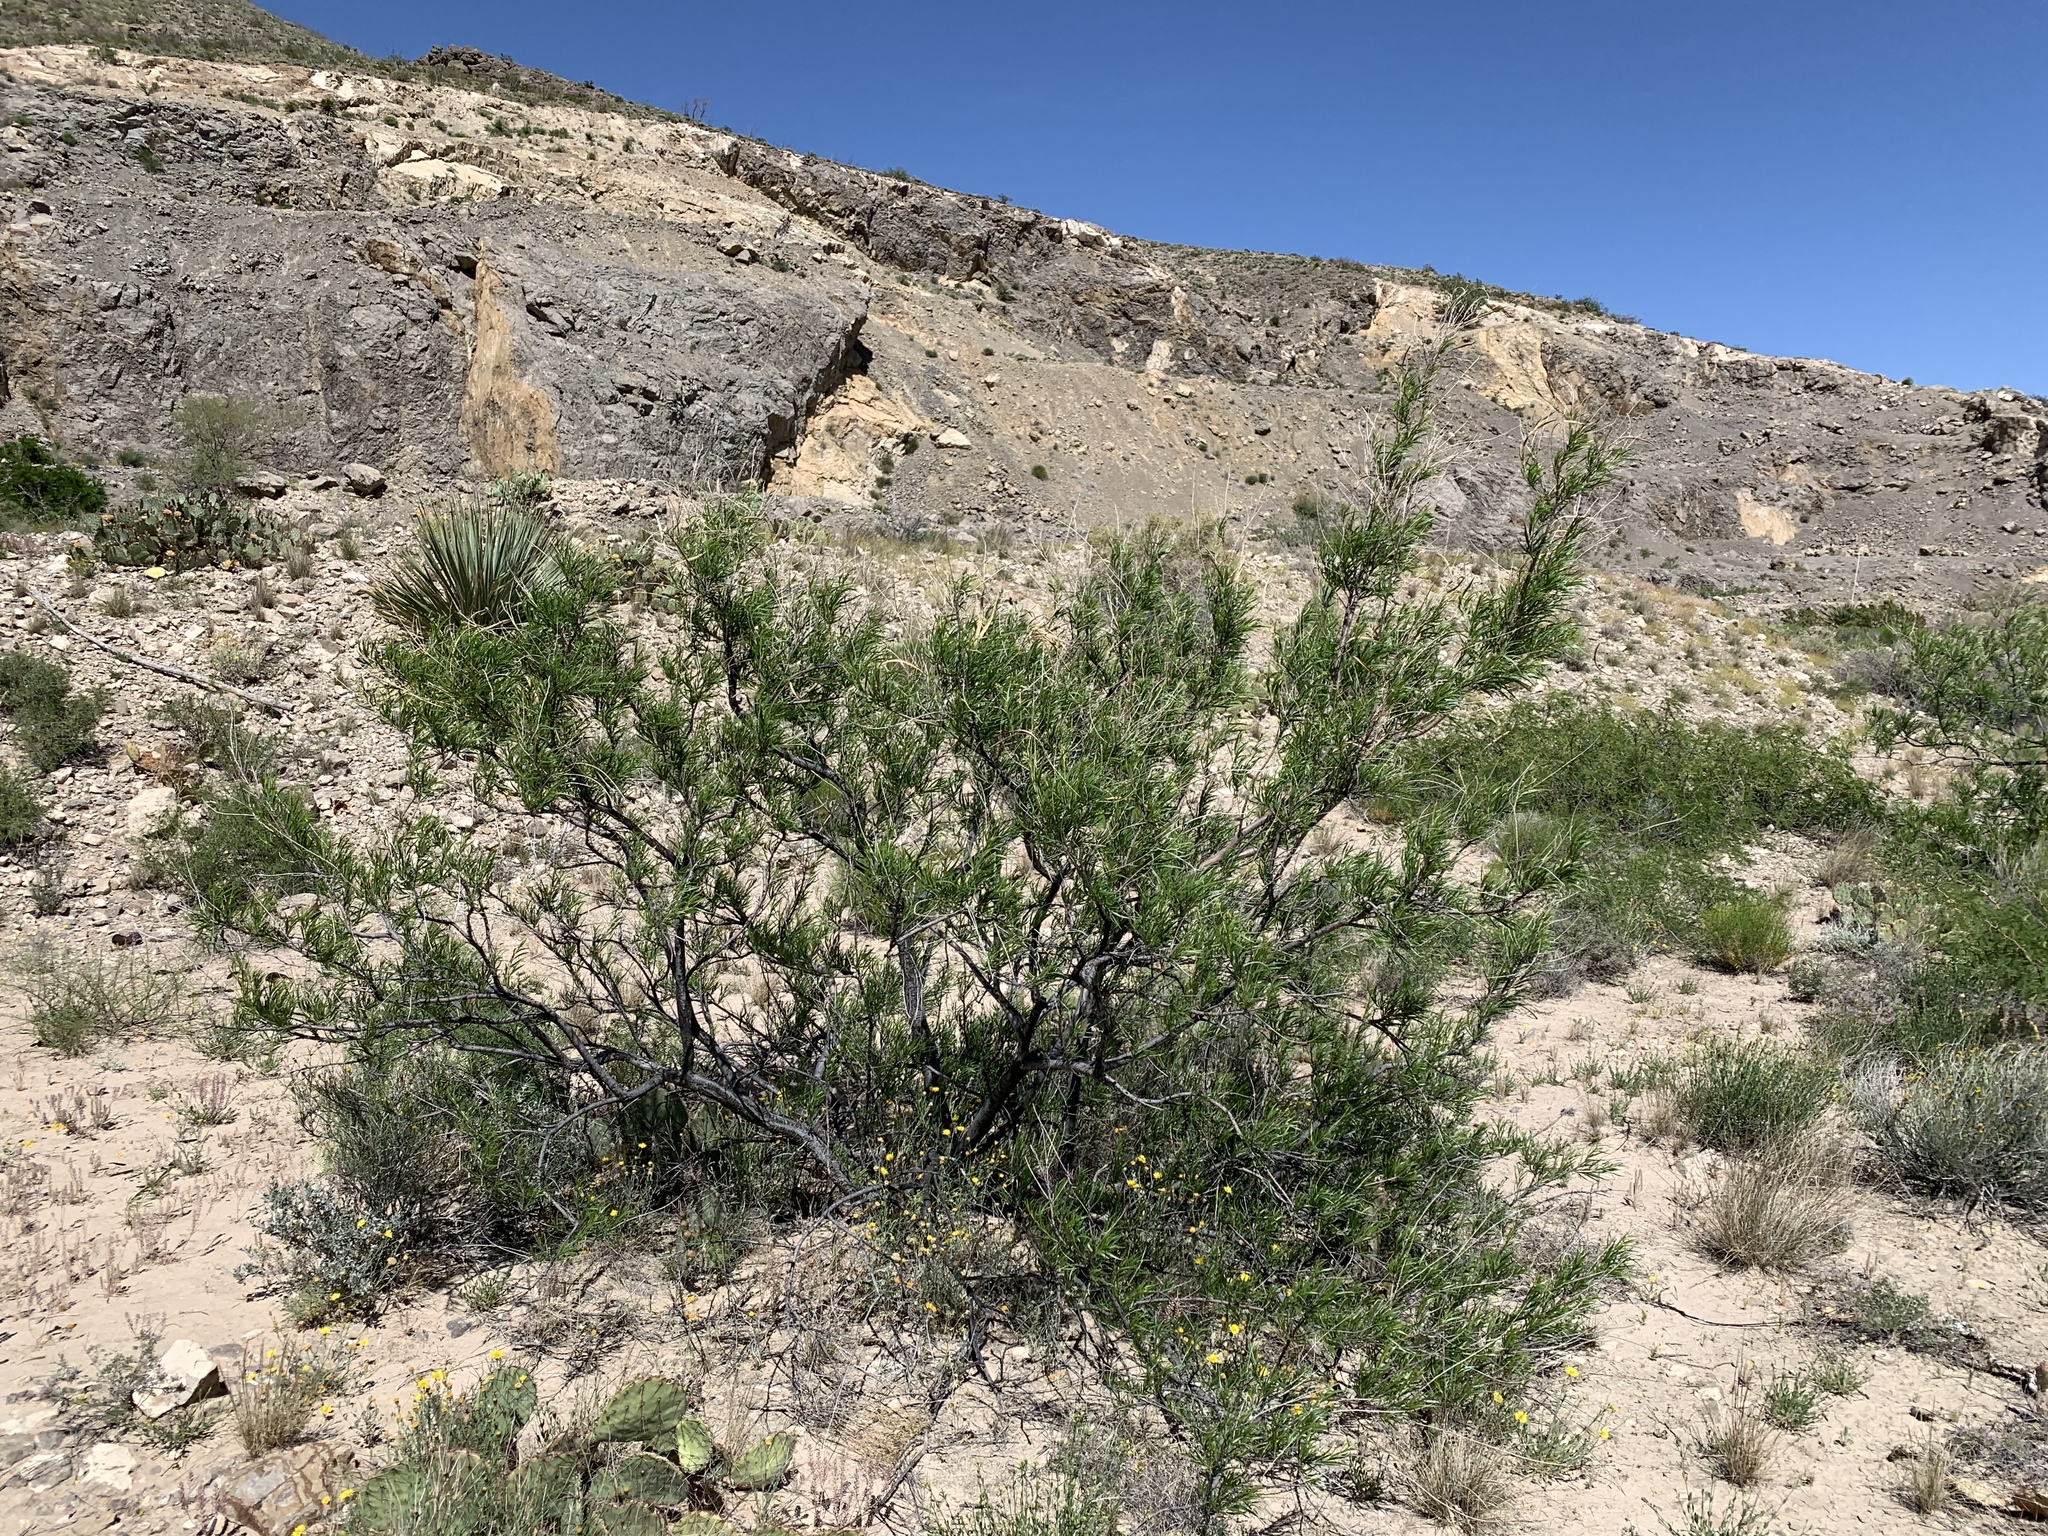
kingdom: Plantae
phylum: Tracheophyta
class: Magnoliopsida
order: Lamiales
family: Bignoniaceae
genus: Chilopsis
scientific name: Chilopsis linearis
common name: Desert-willow
